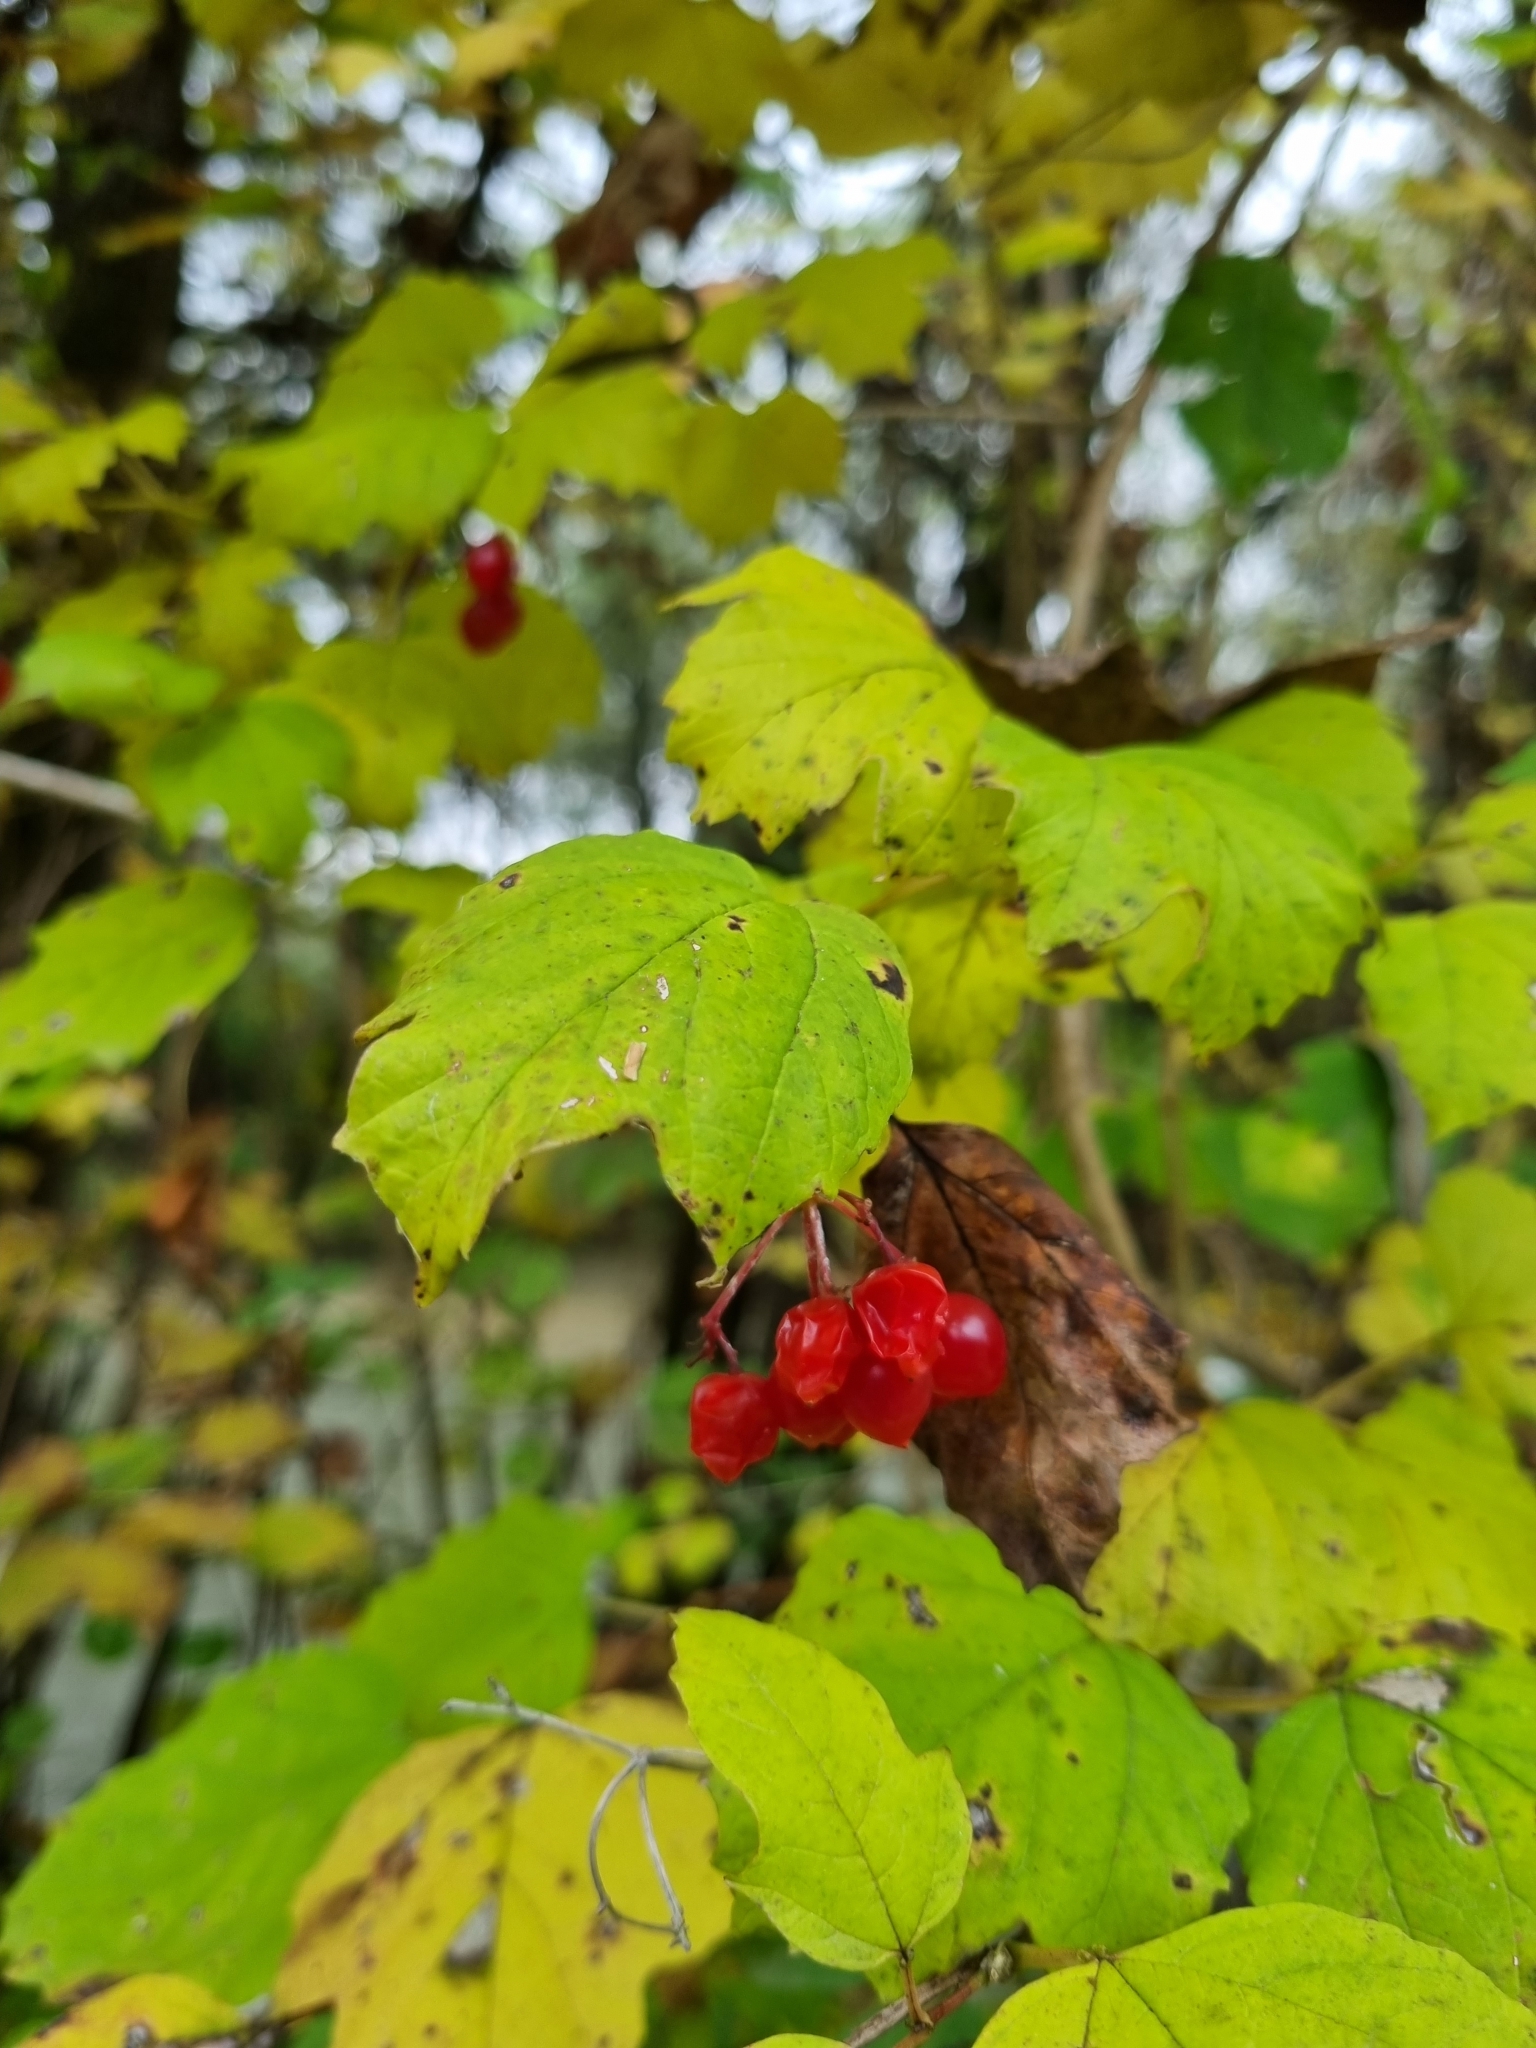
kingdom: Plantae
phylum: Tracheophyta
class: Magnoliopsida
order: Dipsacales
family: Viburnaceae
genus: Viburnum
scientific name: Viburnum opulus
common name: Guelder-rose
